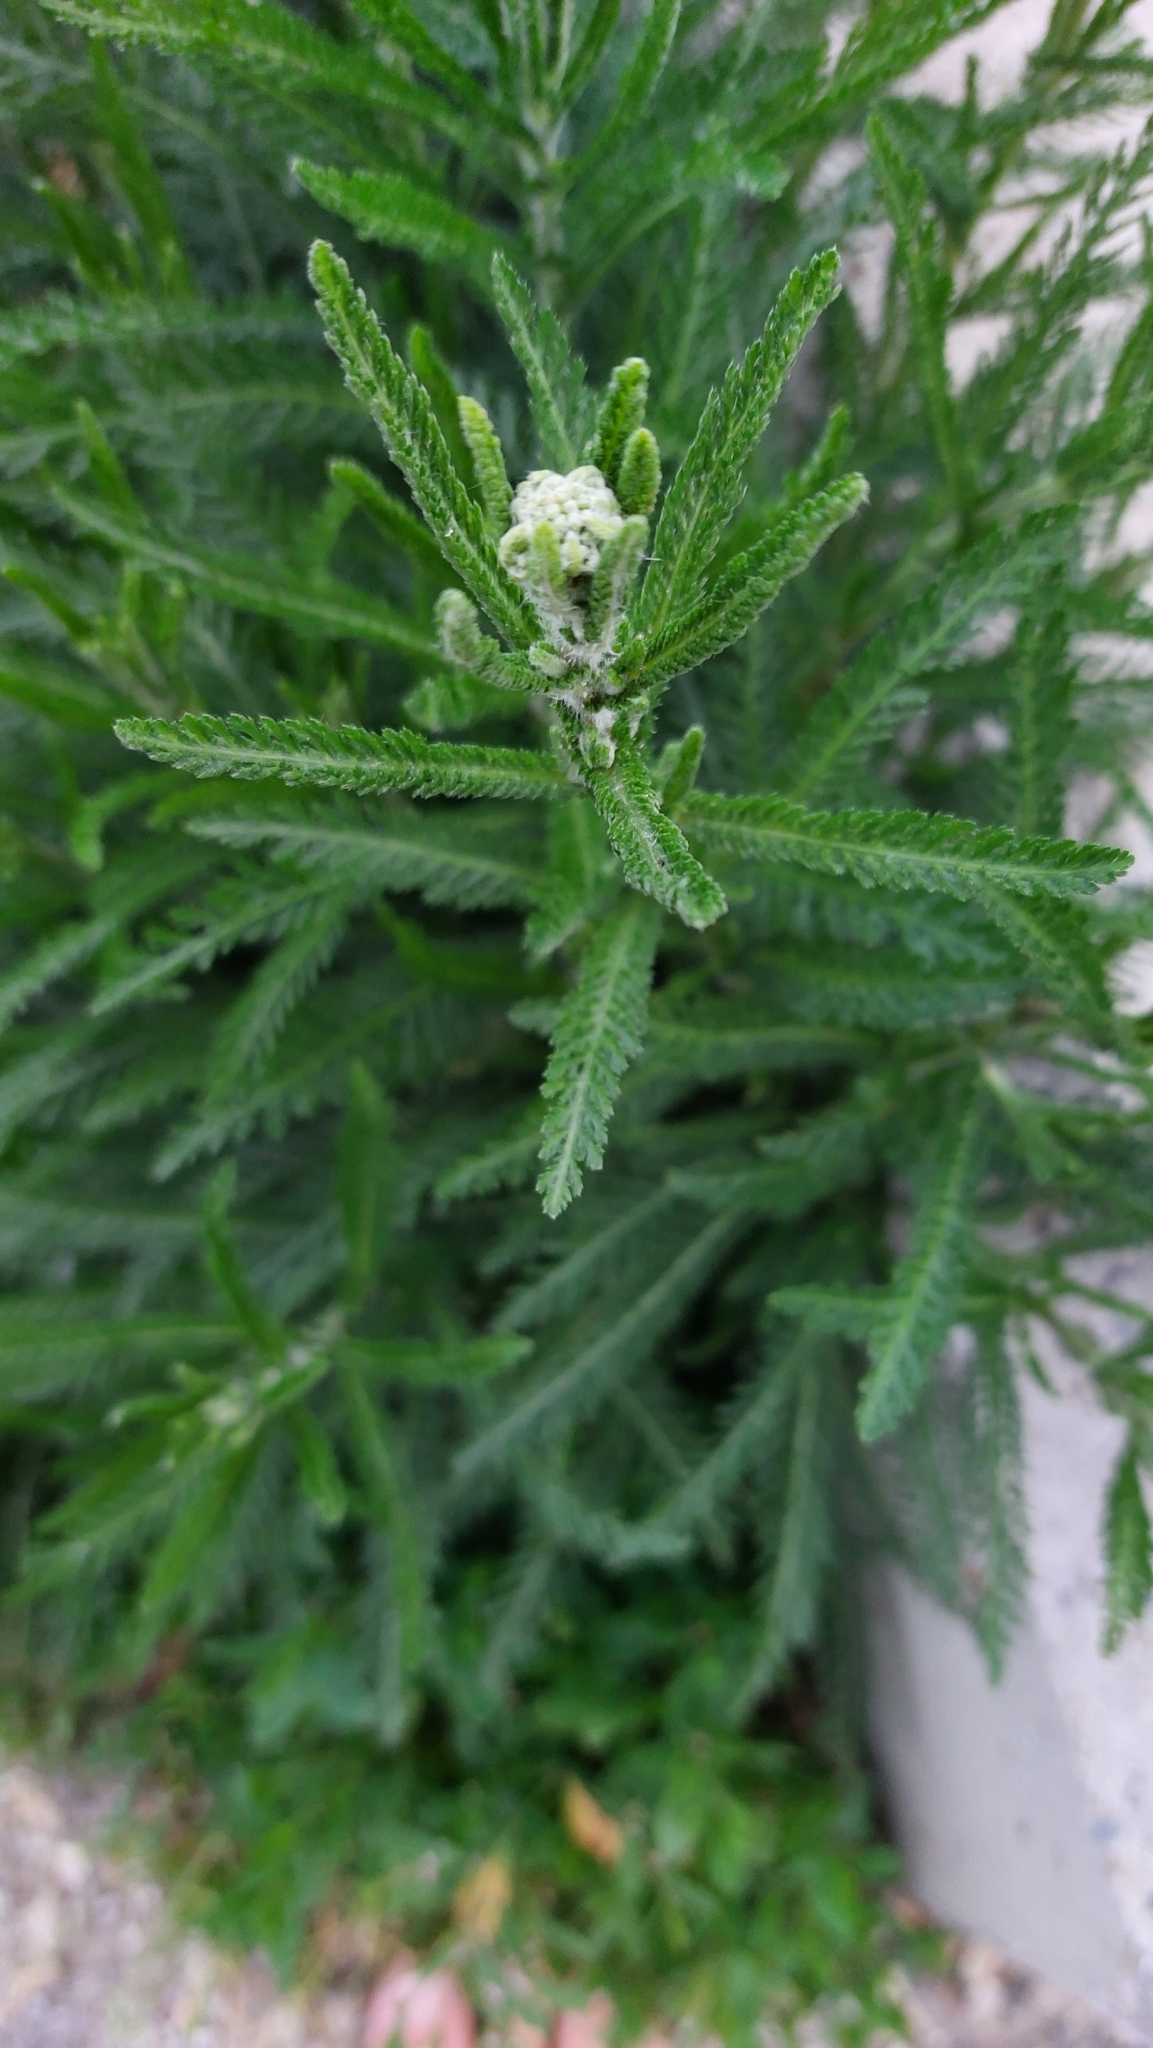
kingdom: Plantae
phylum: Tracheophyta
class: Magnoliopsida
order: Asterales
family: Asteraceae
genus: Achillea
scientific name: Achillea millefolium
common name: Yarrow
